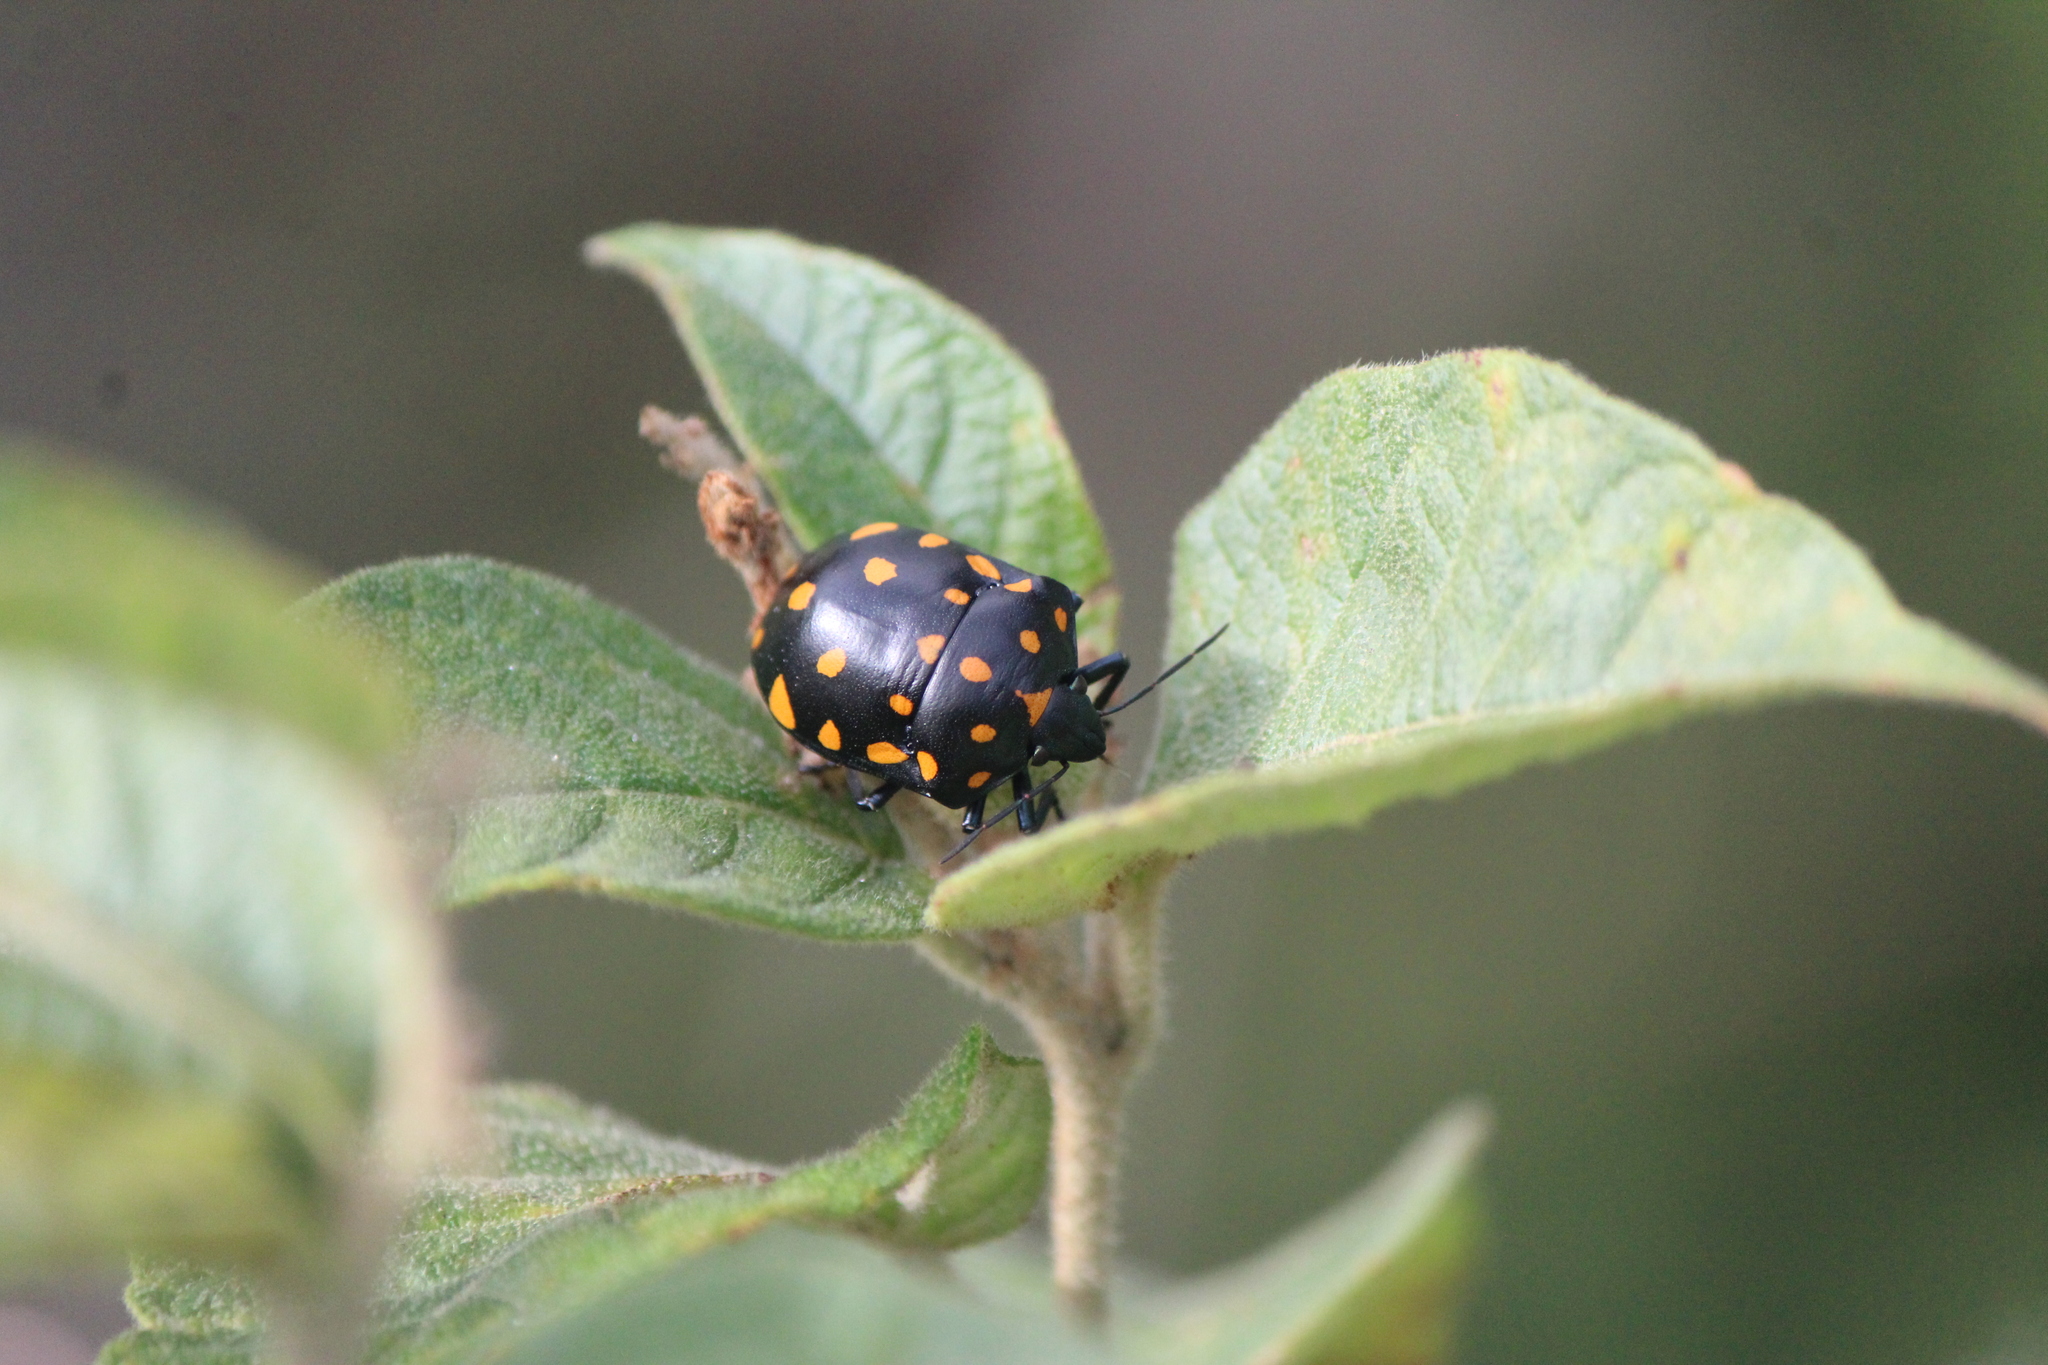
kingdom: Animalia
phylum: Arthropoda
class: Insecta
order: Hemiptera
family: Scutelleridae
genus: Pachycoris
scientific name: Pachycoris klugii
